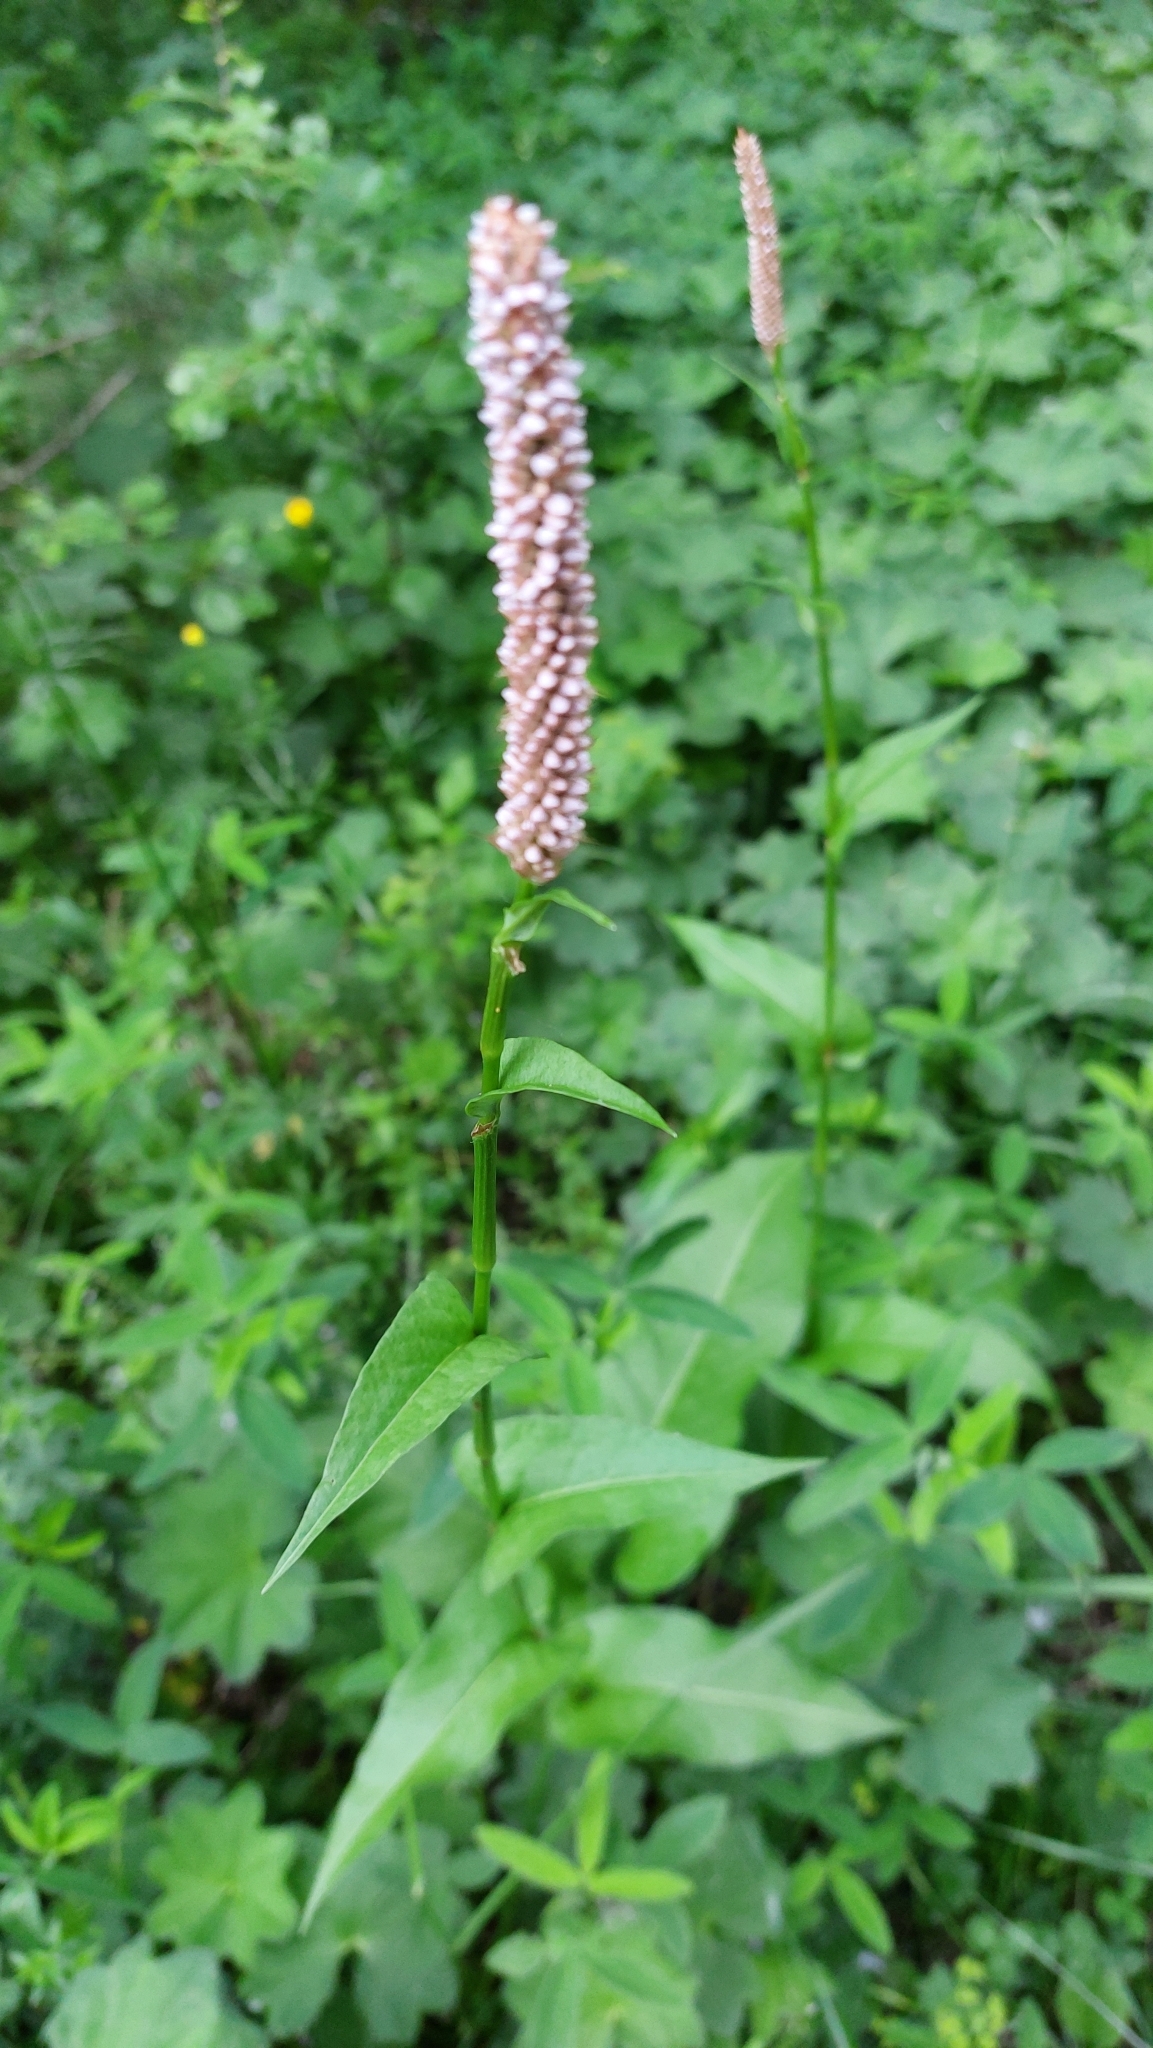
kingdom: Plantae
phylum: Tracheophyta
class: Magnoliopsida
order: Caryophyllales
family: Polygonaceae
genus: Bistorta
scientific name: Bistorta officinalis
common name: Common bistort
